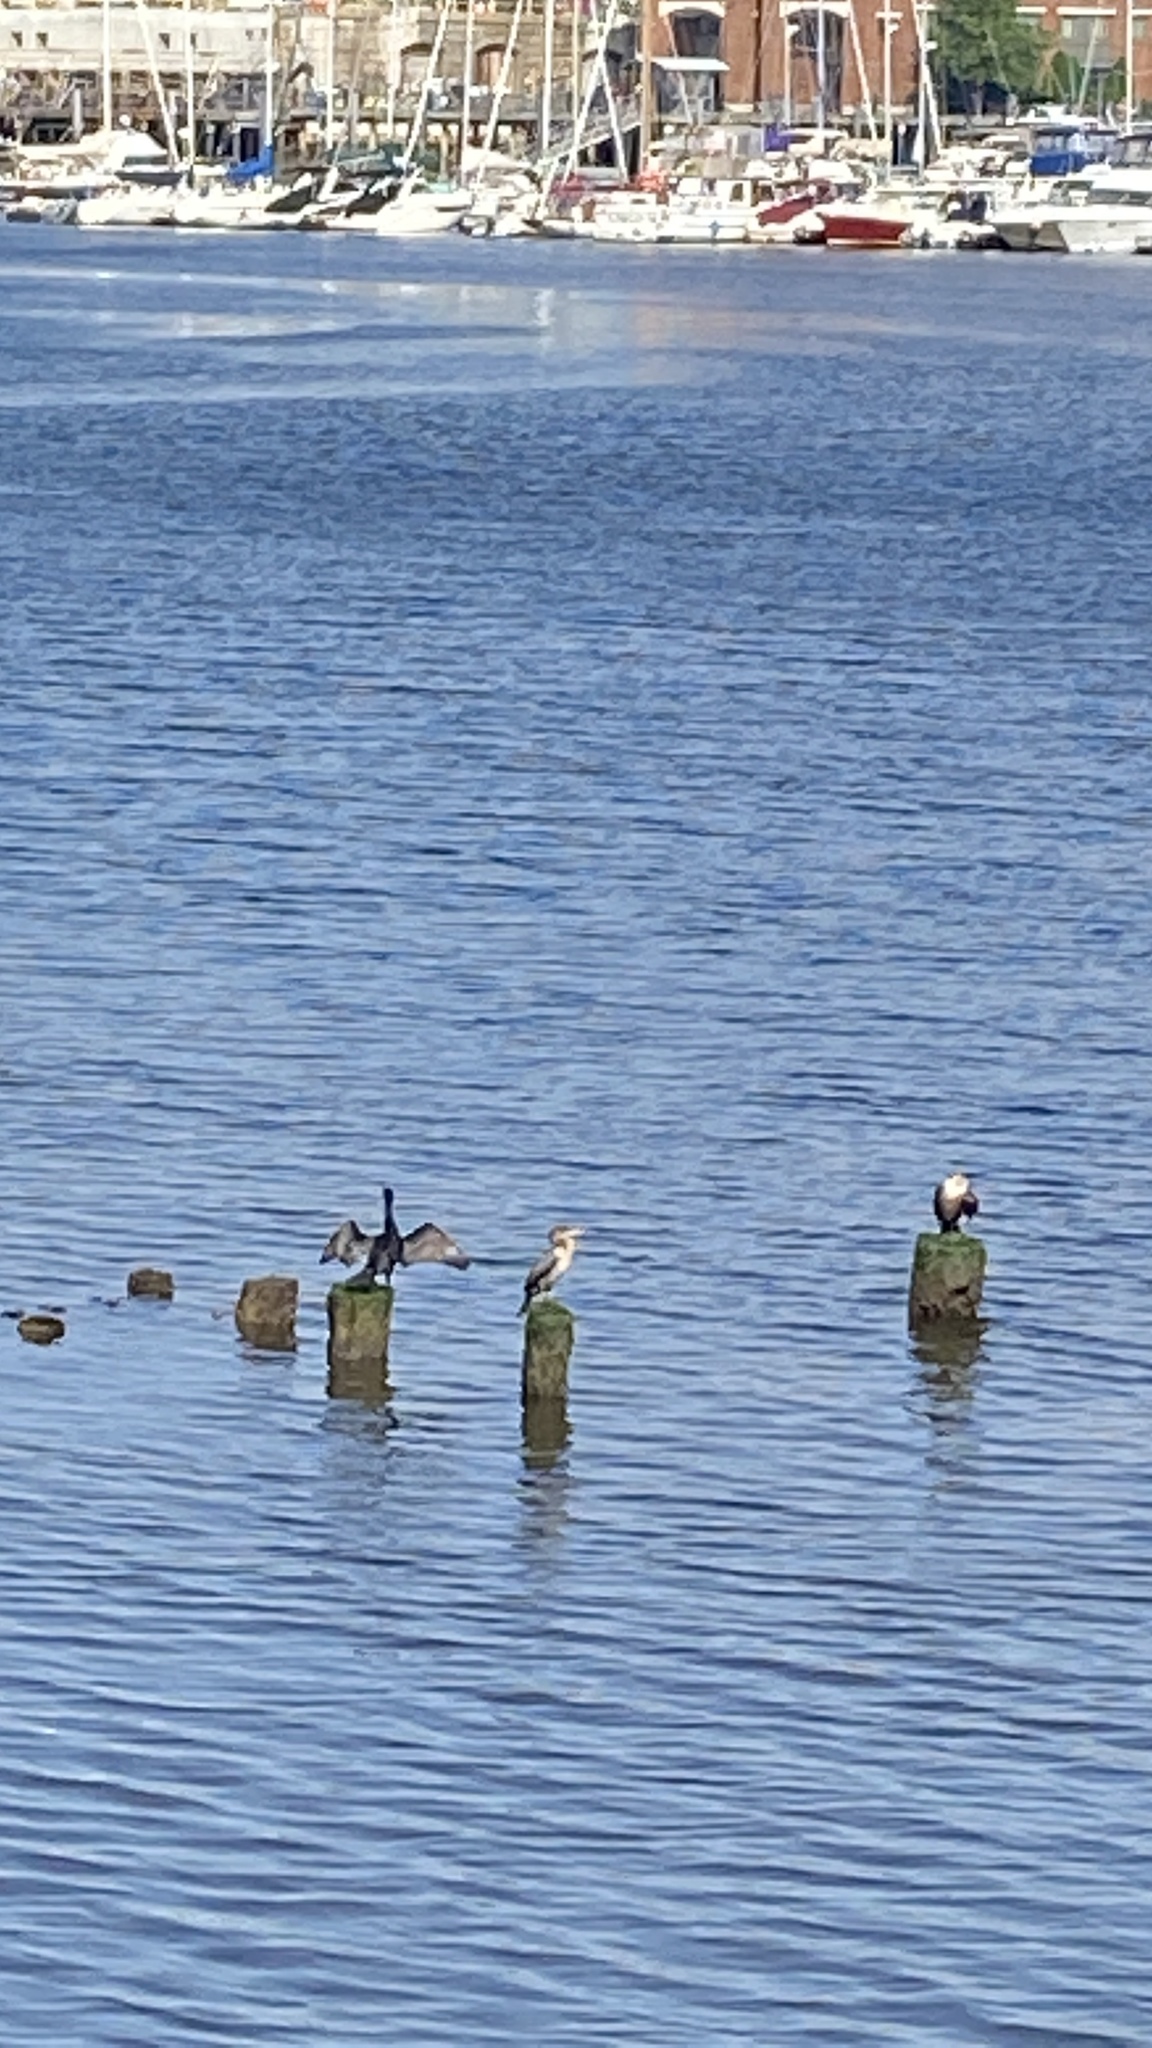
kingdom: Animalia
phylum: Chordata
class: Aves
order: Suliformes
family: Phalacrocoracidae
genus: Phalacrocorax
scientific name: Phalacrocorax auritus
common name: Double-crested cormorant
